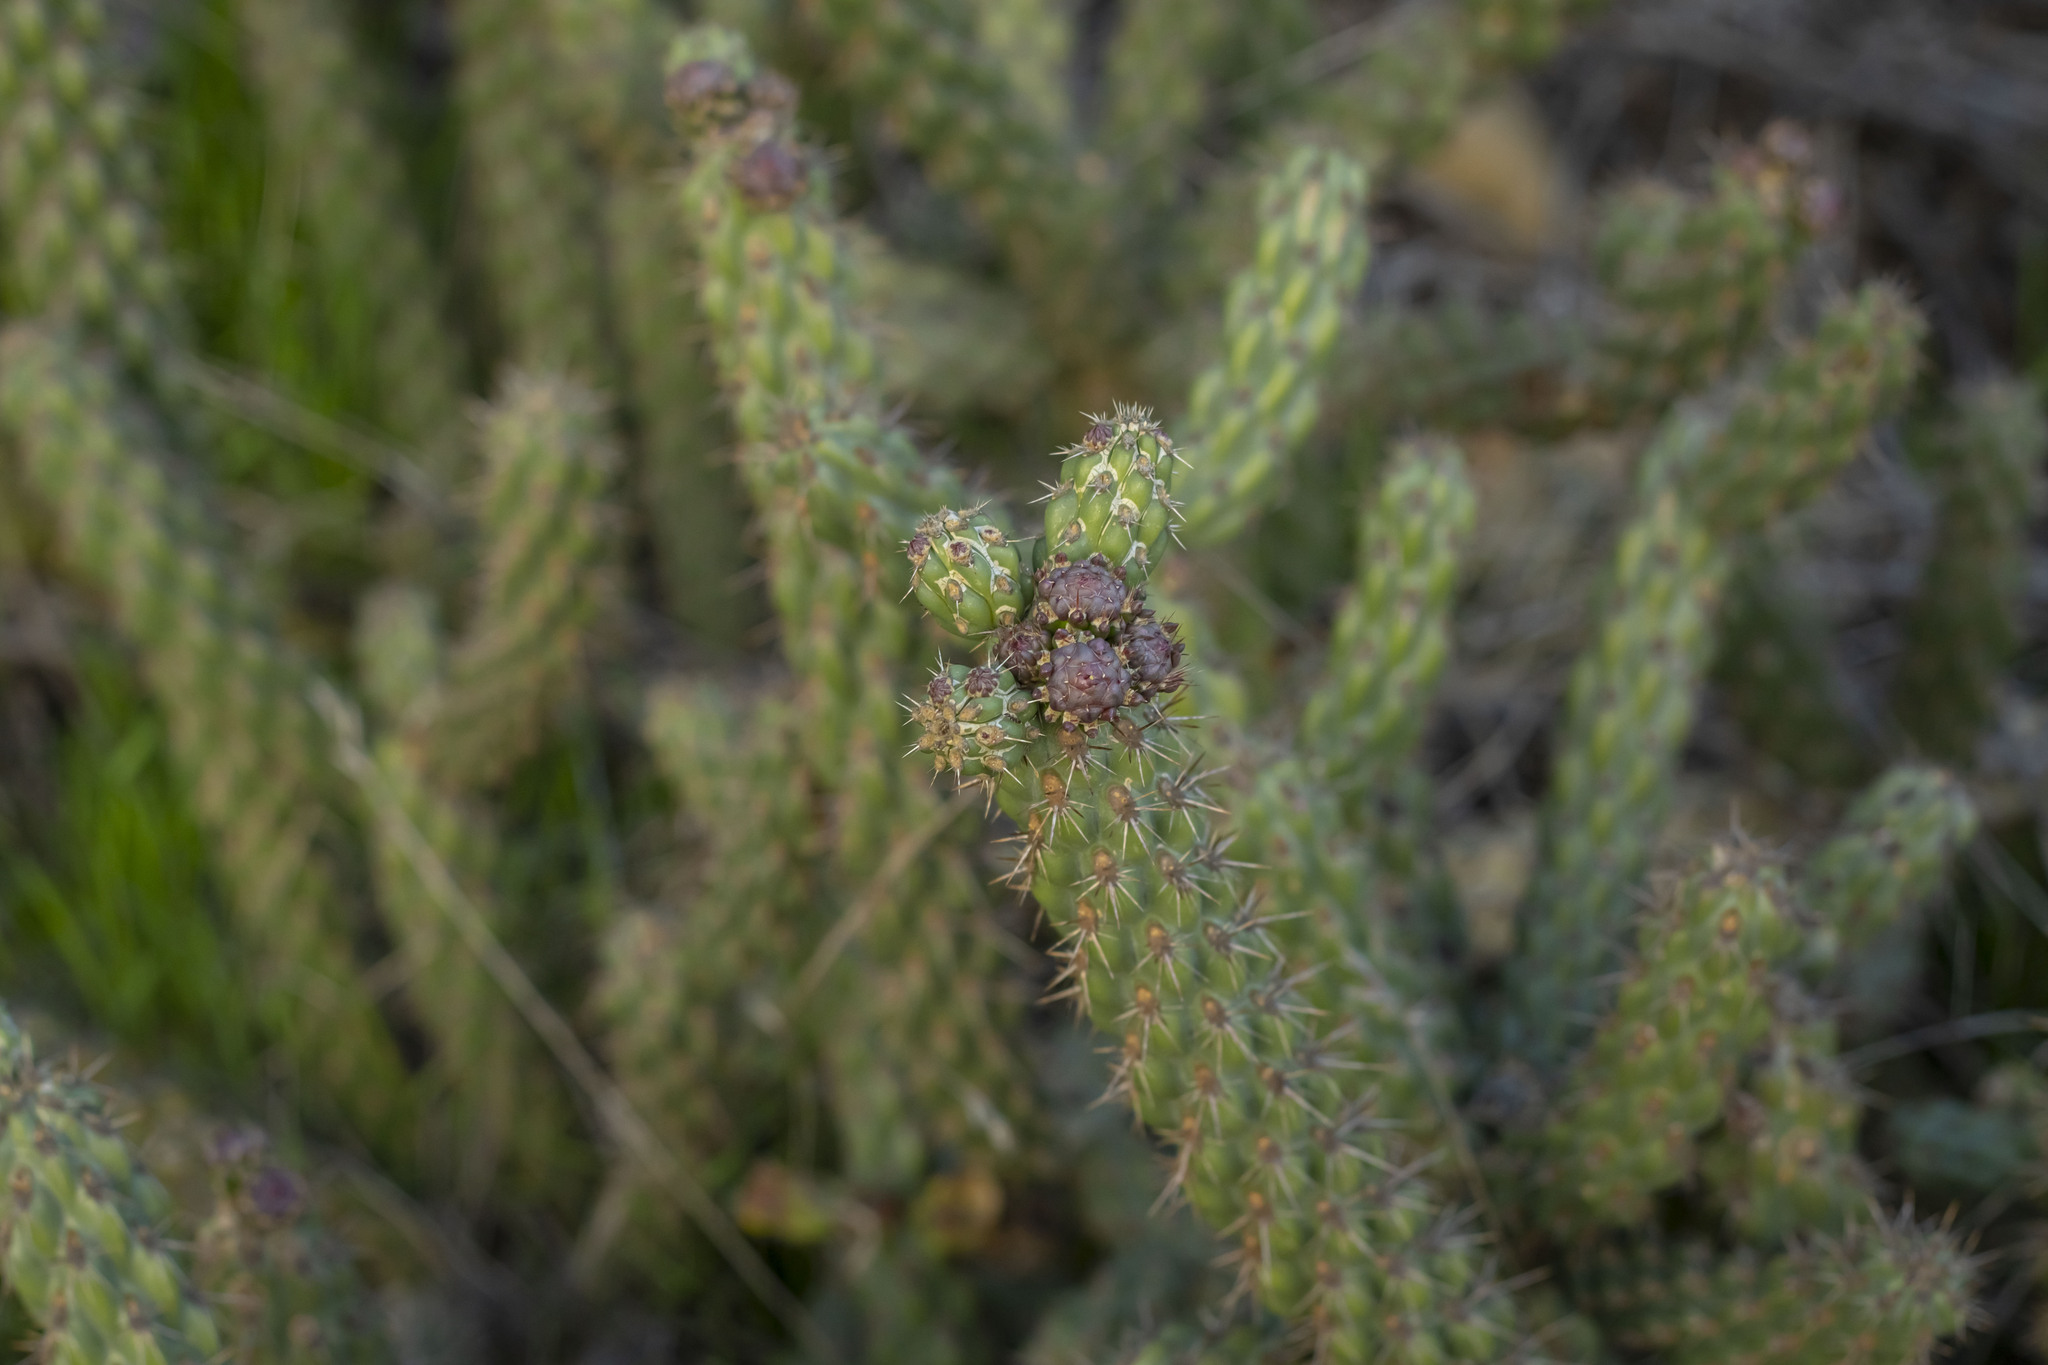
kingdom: Plantae
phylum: Tracheophyta
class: Magnoliopsida
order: Caryophyllales
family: Cactaceae
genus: Cylindropuntia
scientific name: Cylindropuntia californica
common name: Snake cholla
